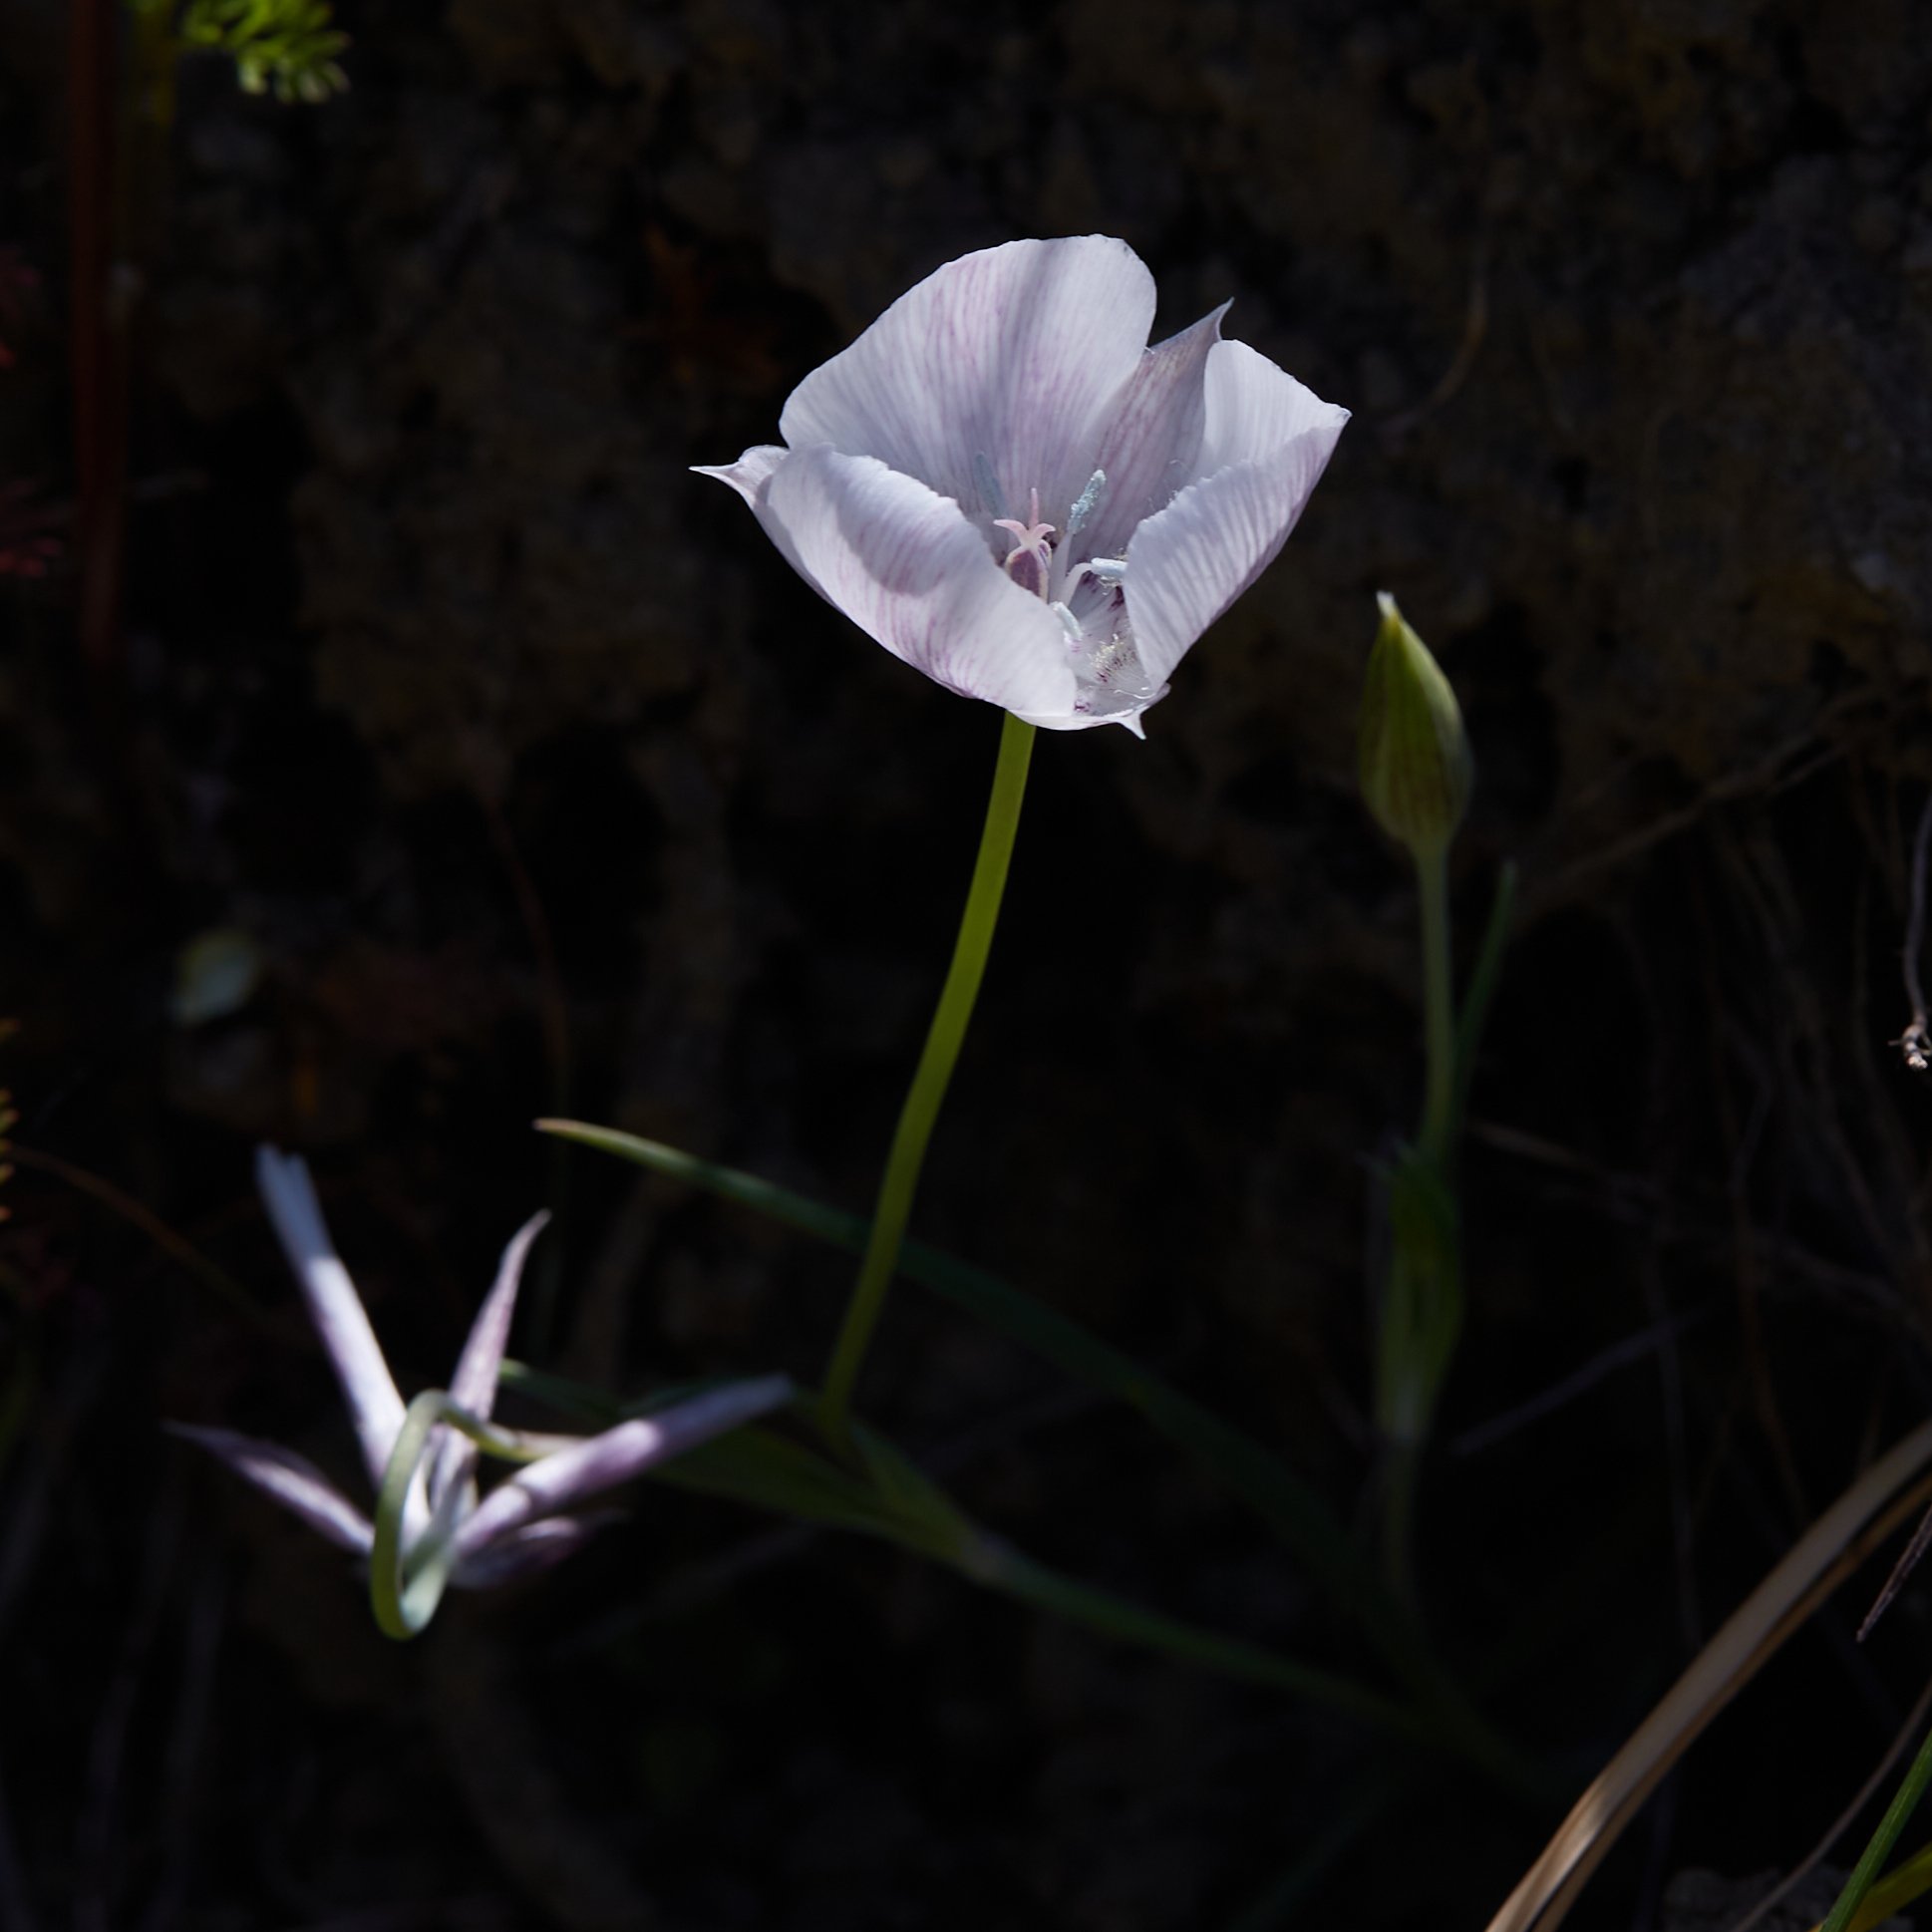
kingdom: Plantae
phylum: Tracheophyta
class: Liliopsida
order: Liliales
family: Liliaceae
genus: Calochortus
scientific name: Calochortus umbellatus
